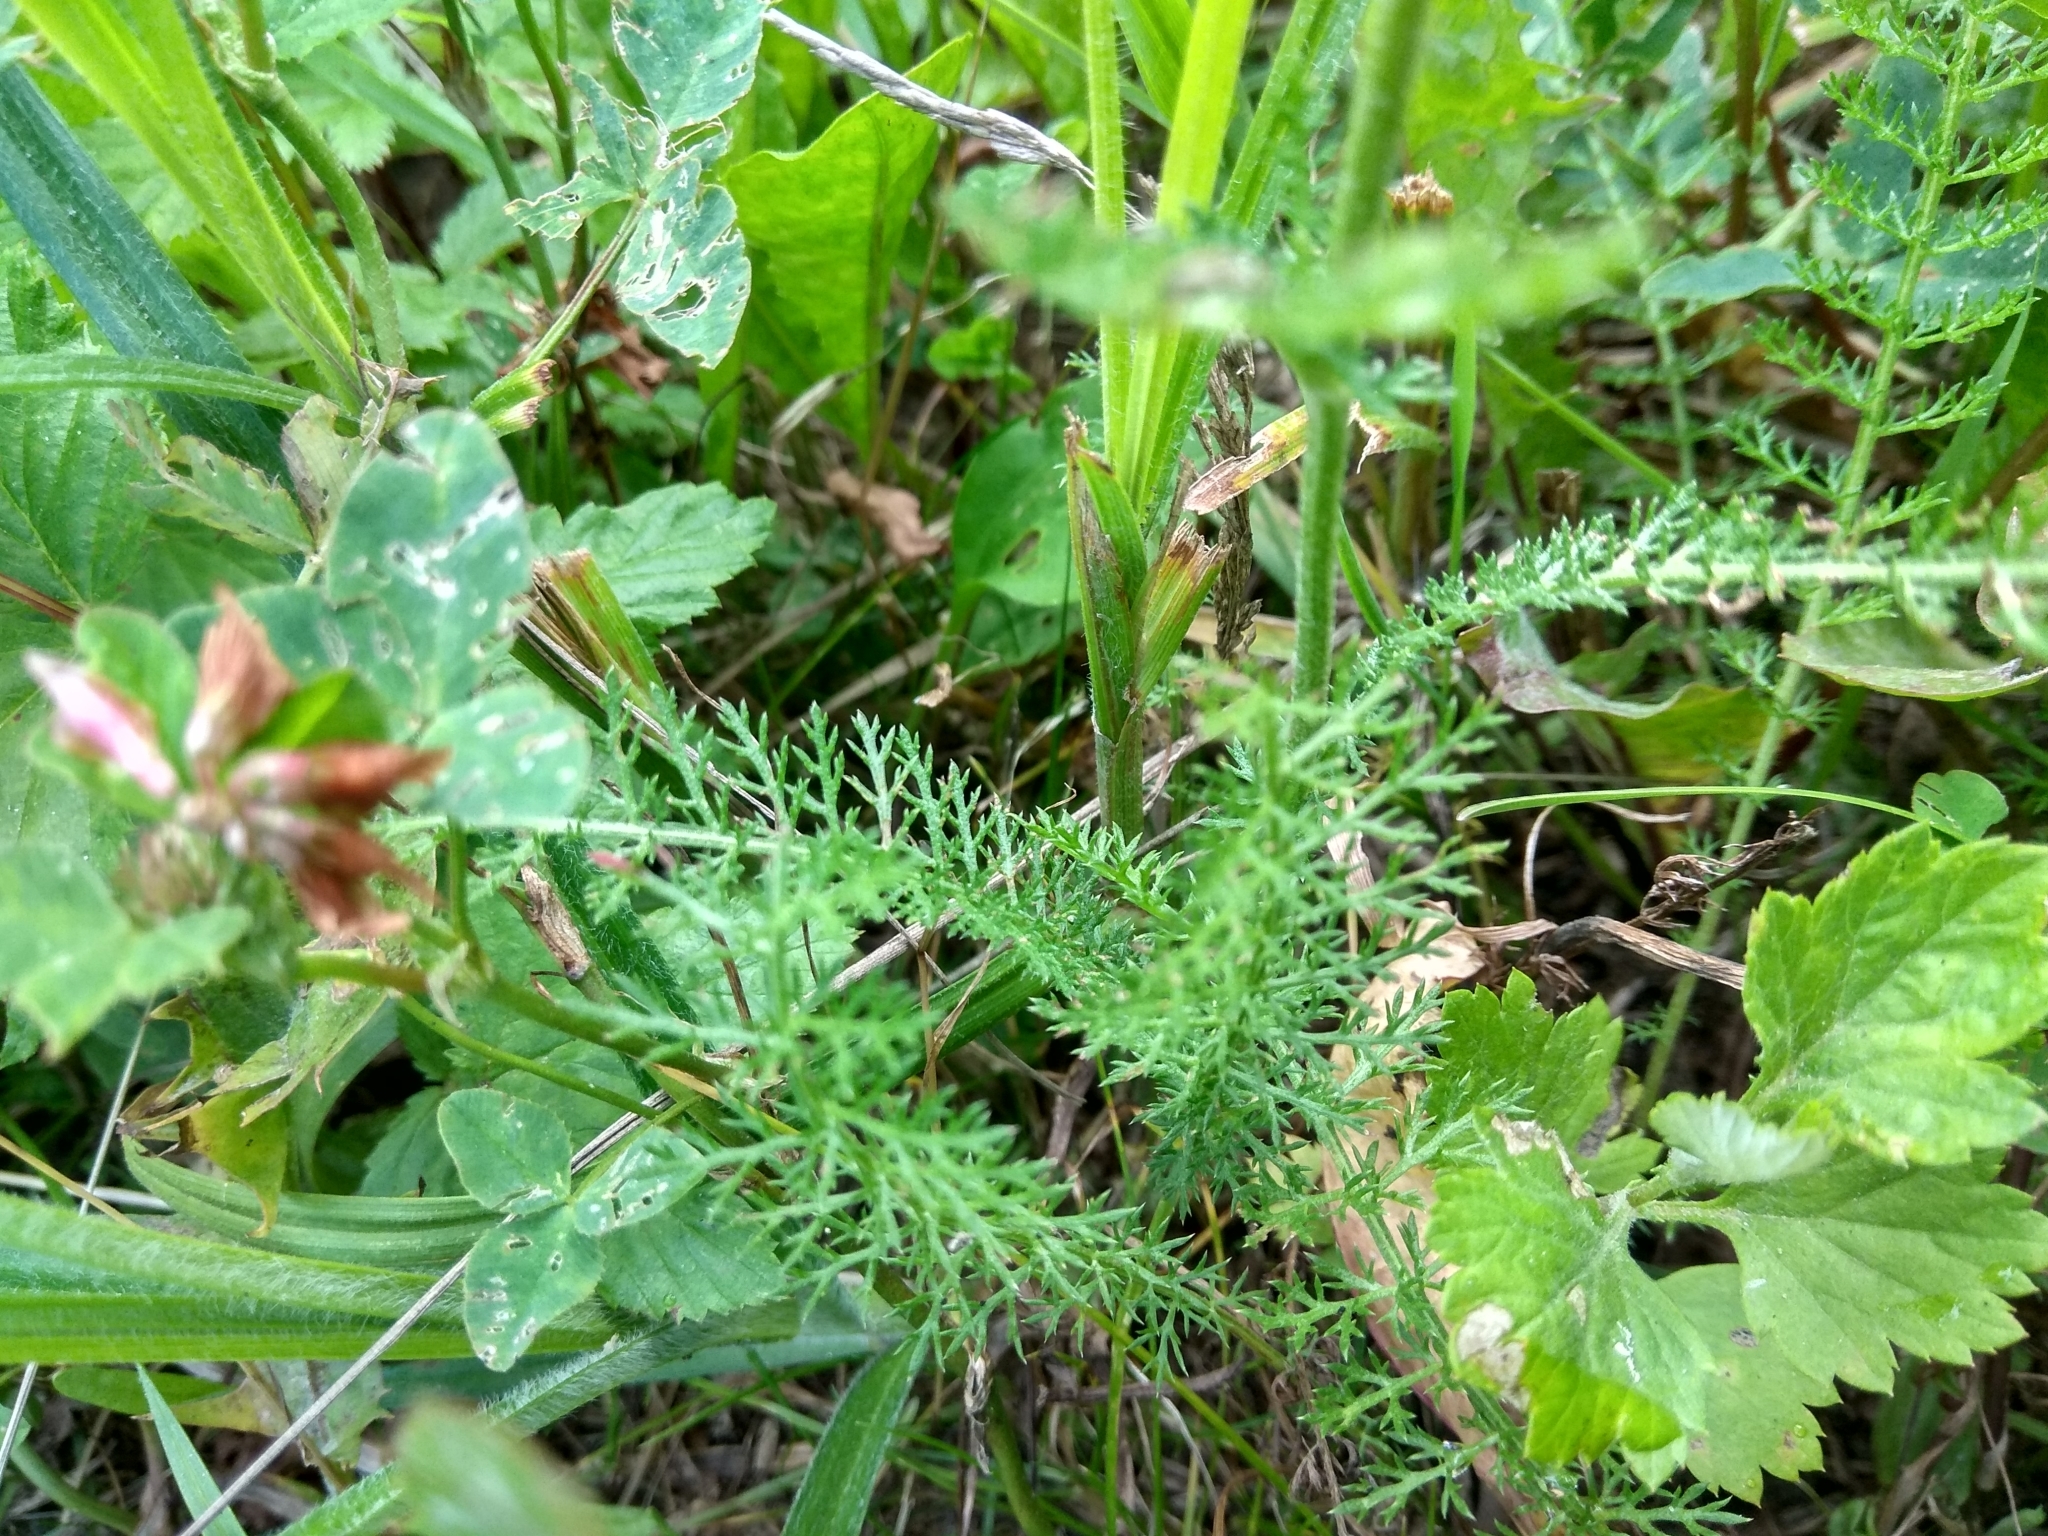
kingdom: Plantae
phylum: Tracheophyta
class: Magnoliopsida
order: Asterales
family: Asteraceae
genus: Achillea
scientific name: Achillea millefolium
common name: Yarrow
